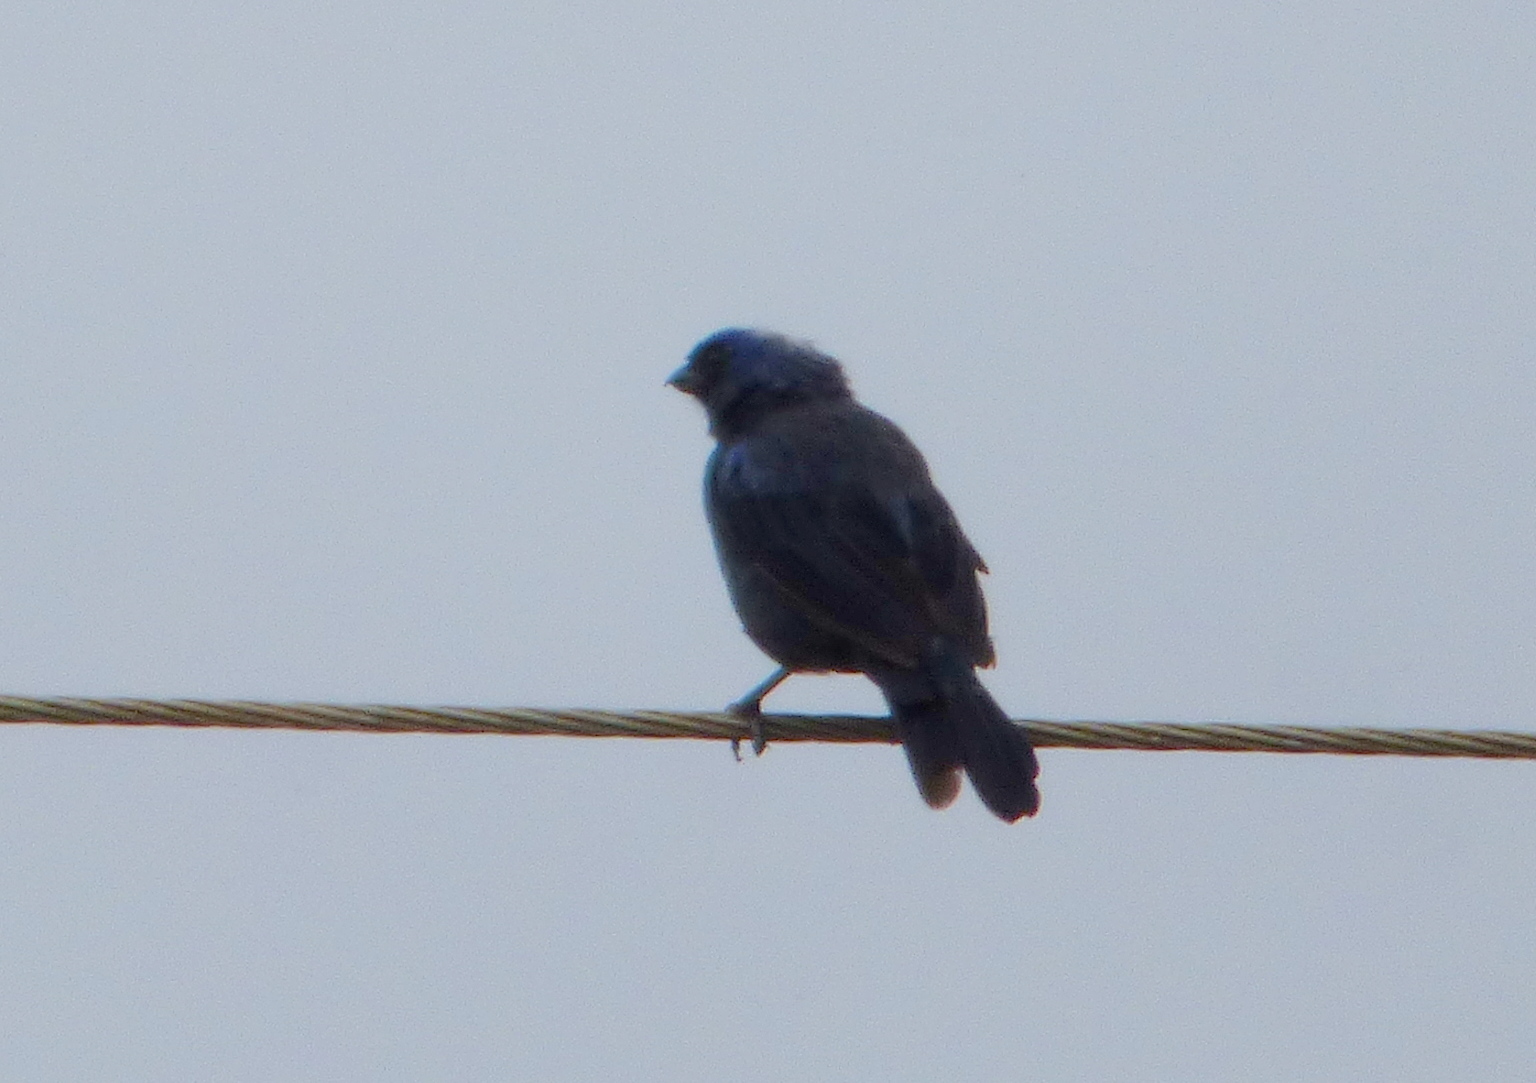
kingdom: Animalia
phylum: Chordata
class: Aves
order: Passeriformes
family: Thraupidae
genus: Stephanophorus
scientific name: Stephanophorus diadematus
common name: Diademed tanager
